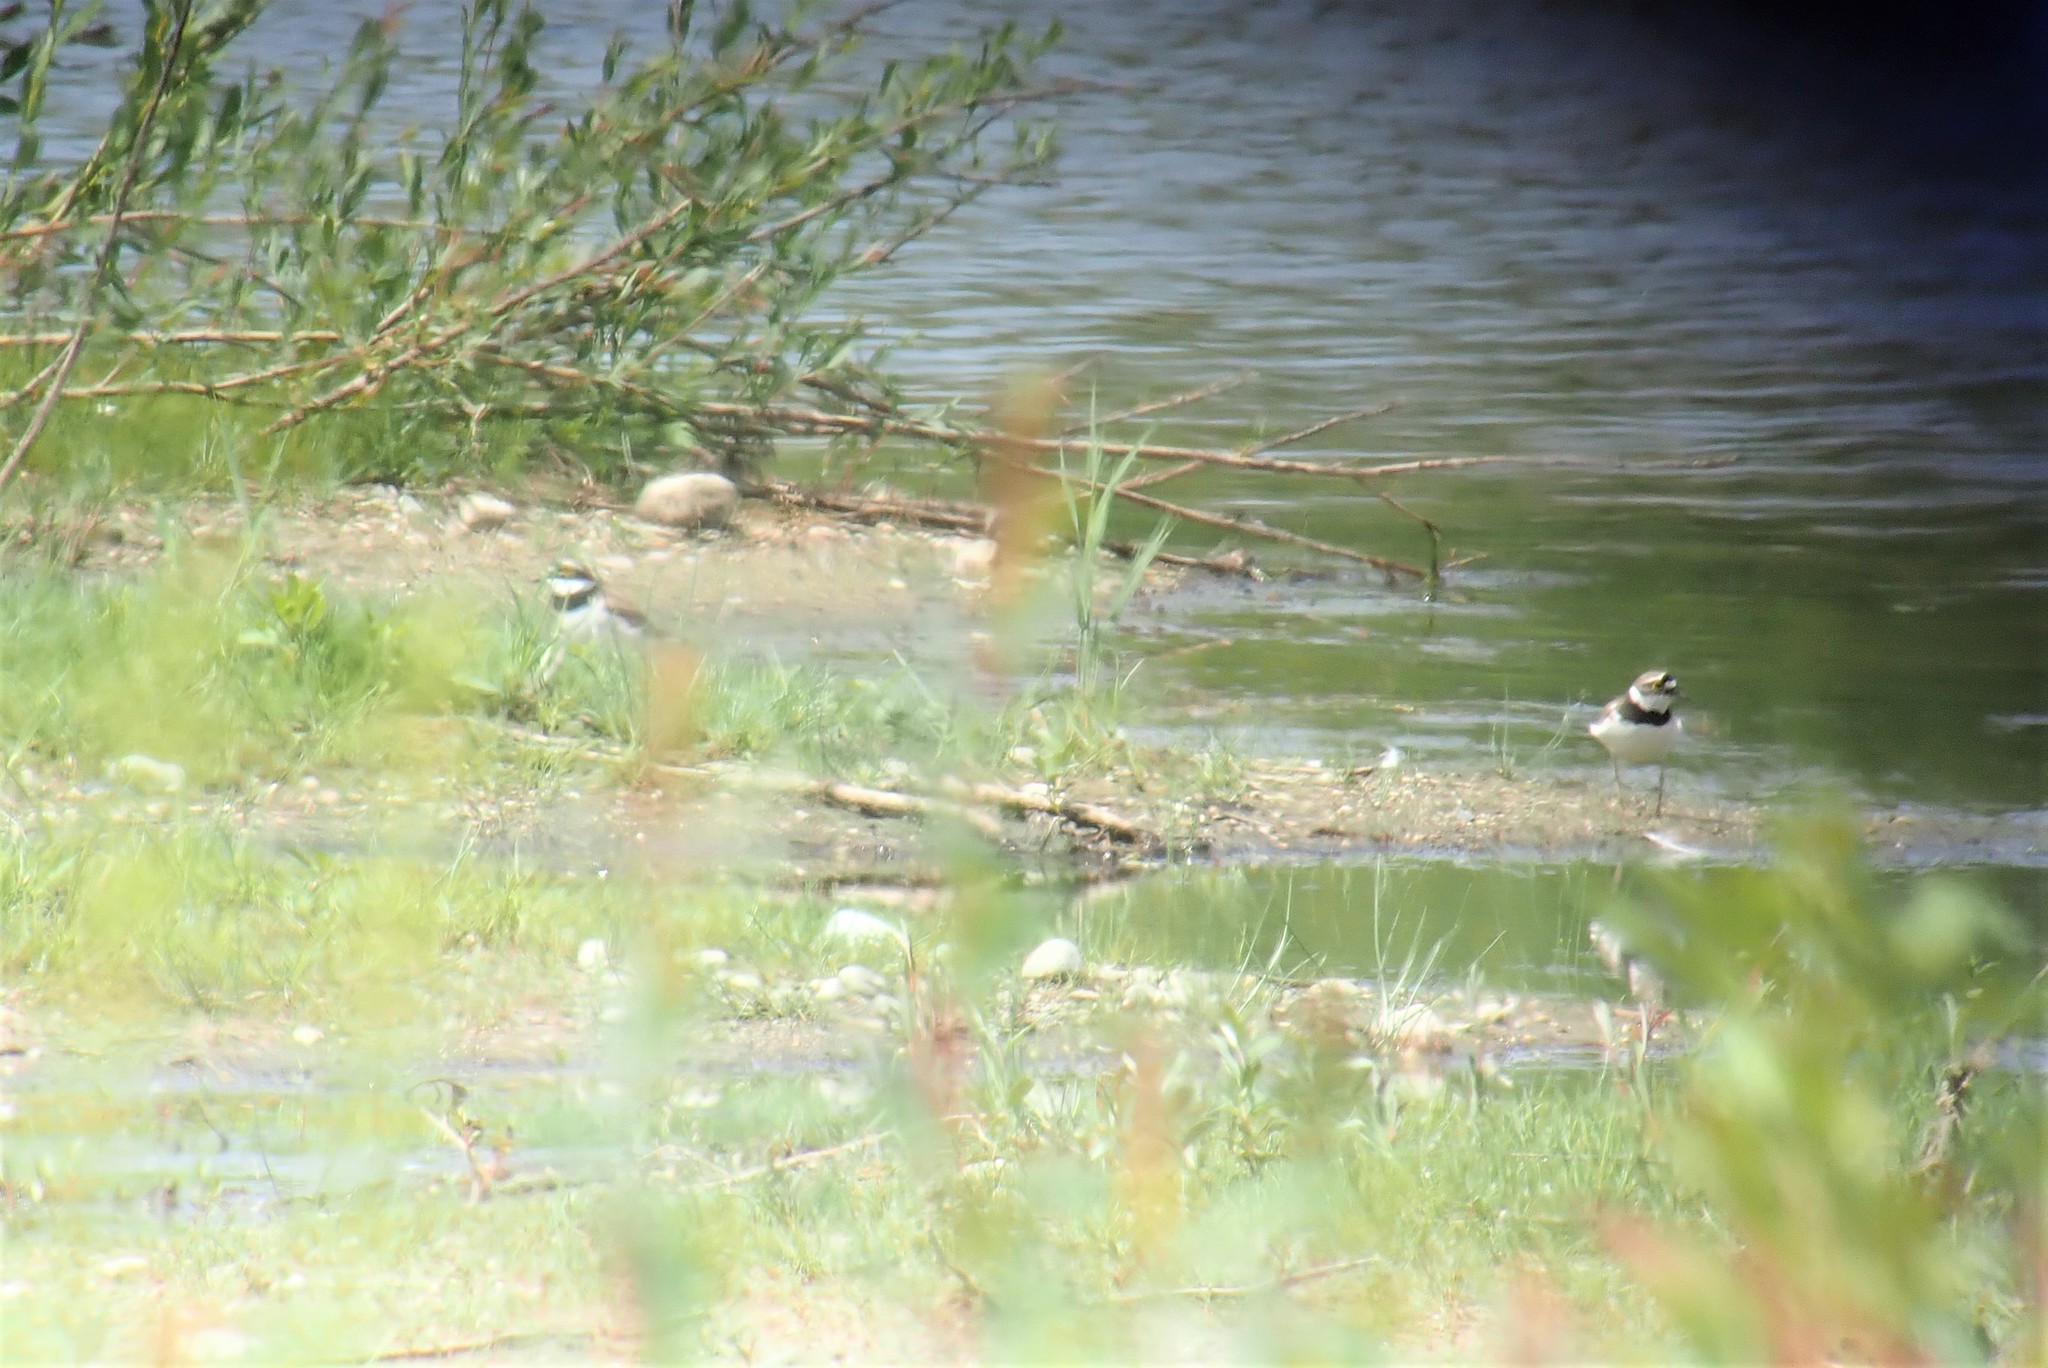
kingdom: Animalia
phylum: Chordata
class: Aves
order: Charadriiformes
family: Charadriidae
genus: Charadrius
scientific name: Charadrius dubius
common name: Little ringed plover
